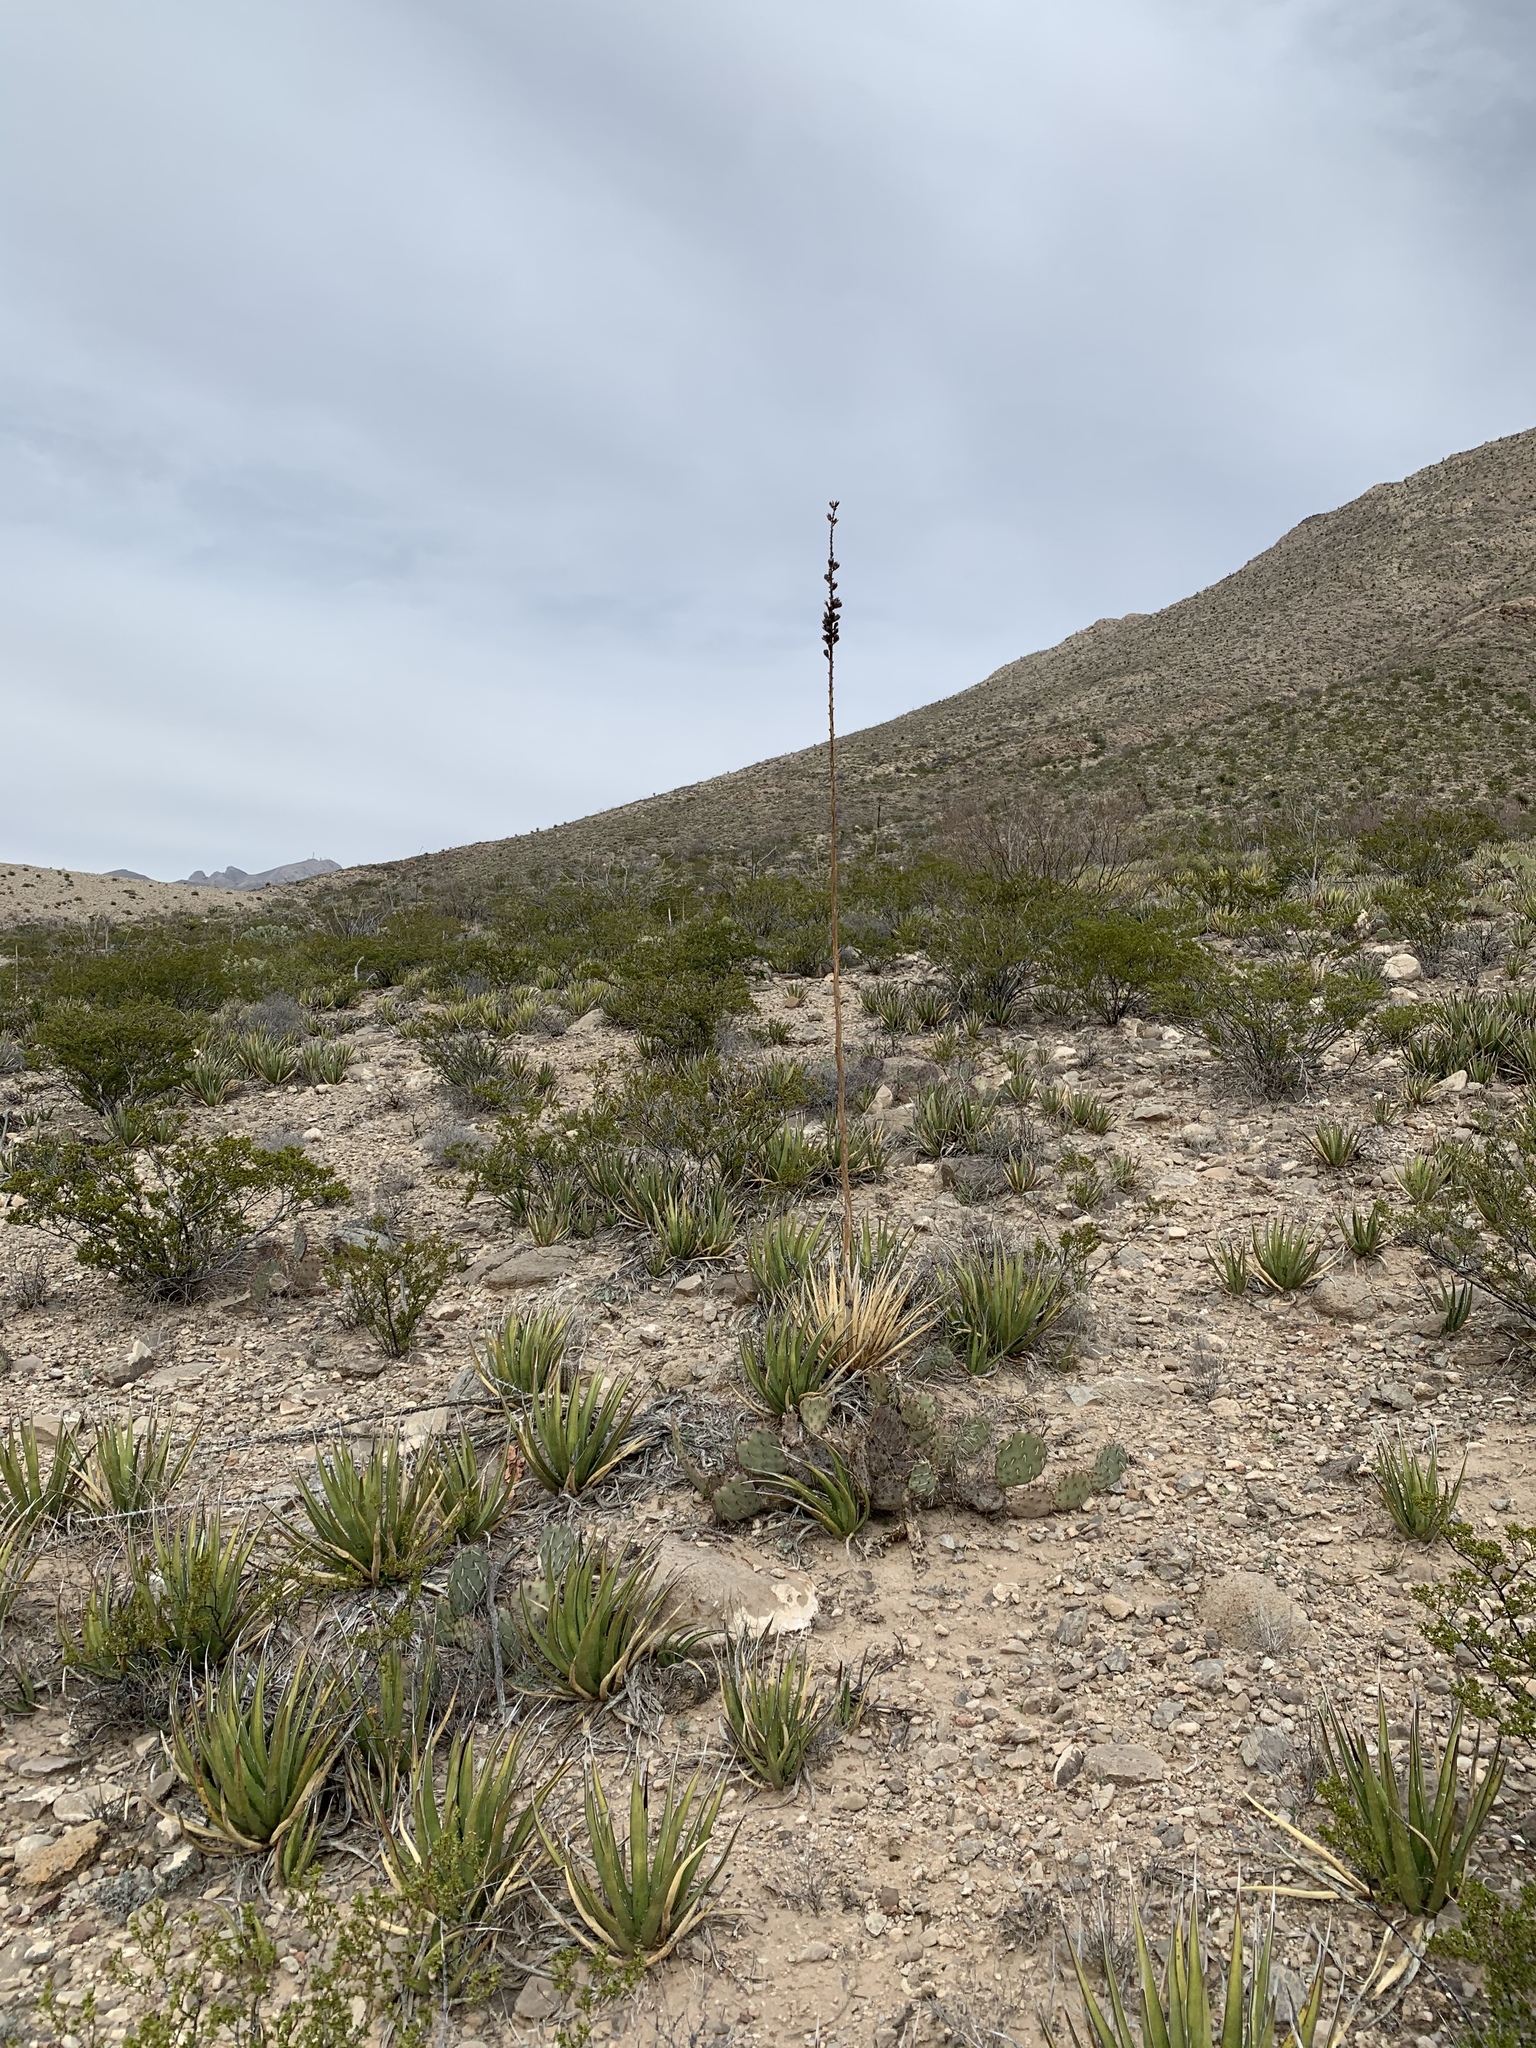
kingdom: Plantae
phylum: Tracheophyta
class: Liliopsida
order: Asparagales
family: Asparagaceae
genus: Agave
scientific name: Agave lechuguilla
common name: Lecheguilla agave
